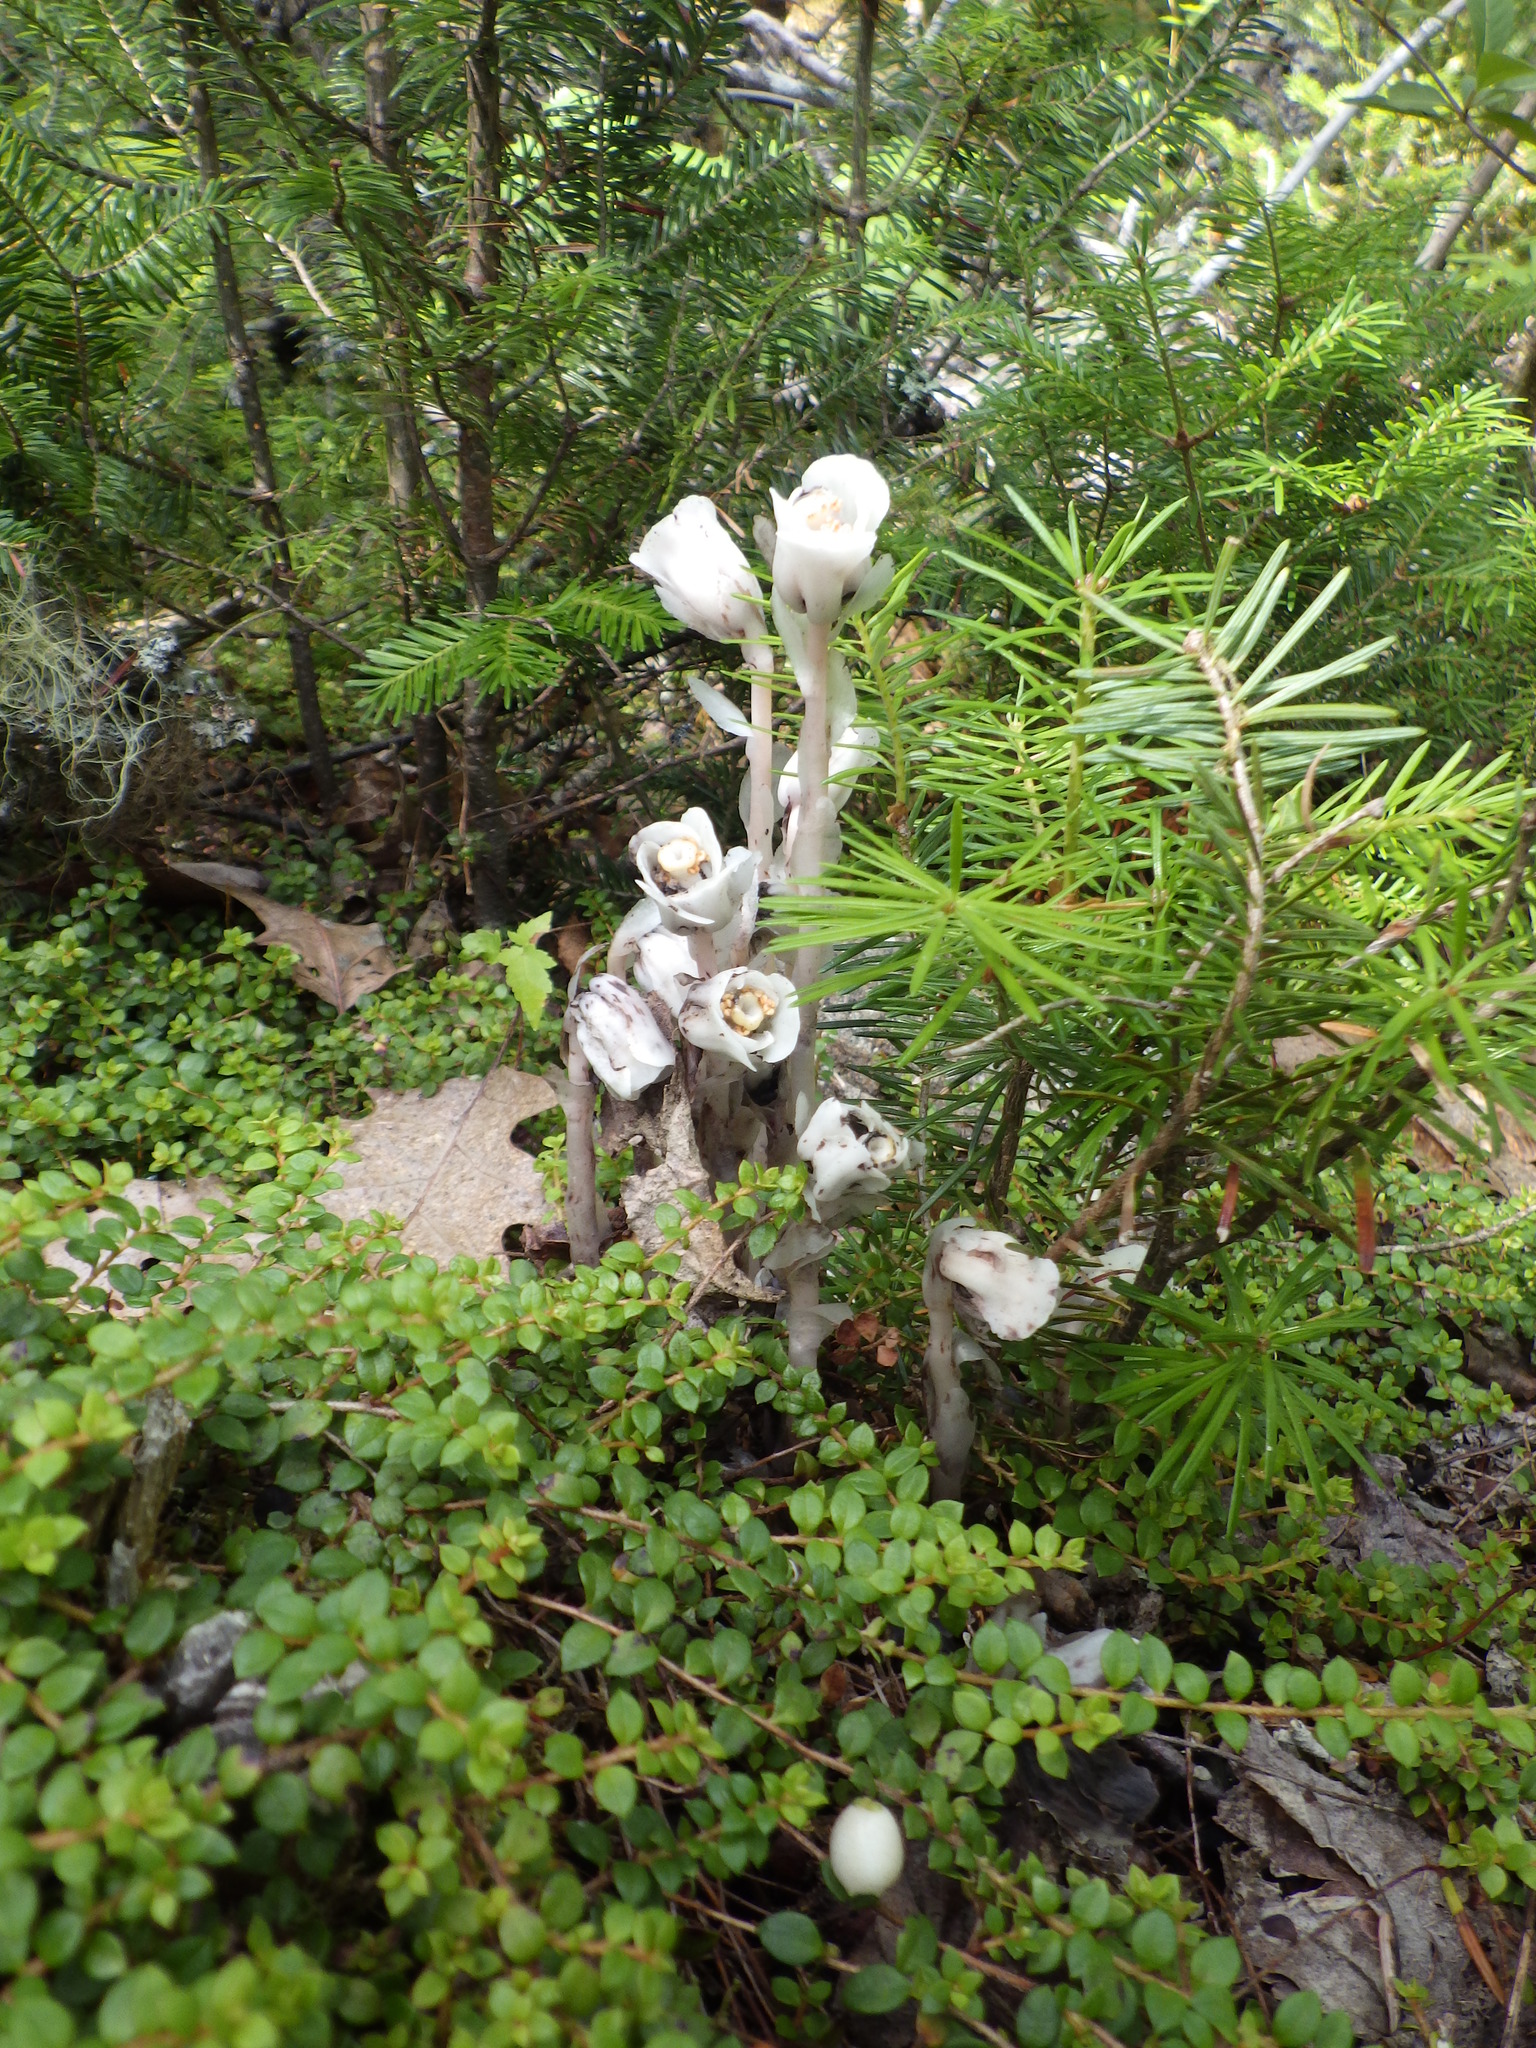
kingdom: Plantae
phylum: Tracheophyta
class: Magnoliopsida
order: Ericales
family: Ericaceae
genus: Monotropa
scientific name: Monotropa uniflora
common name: Convulsion root
